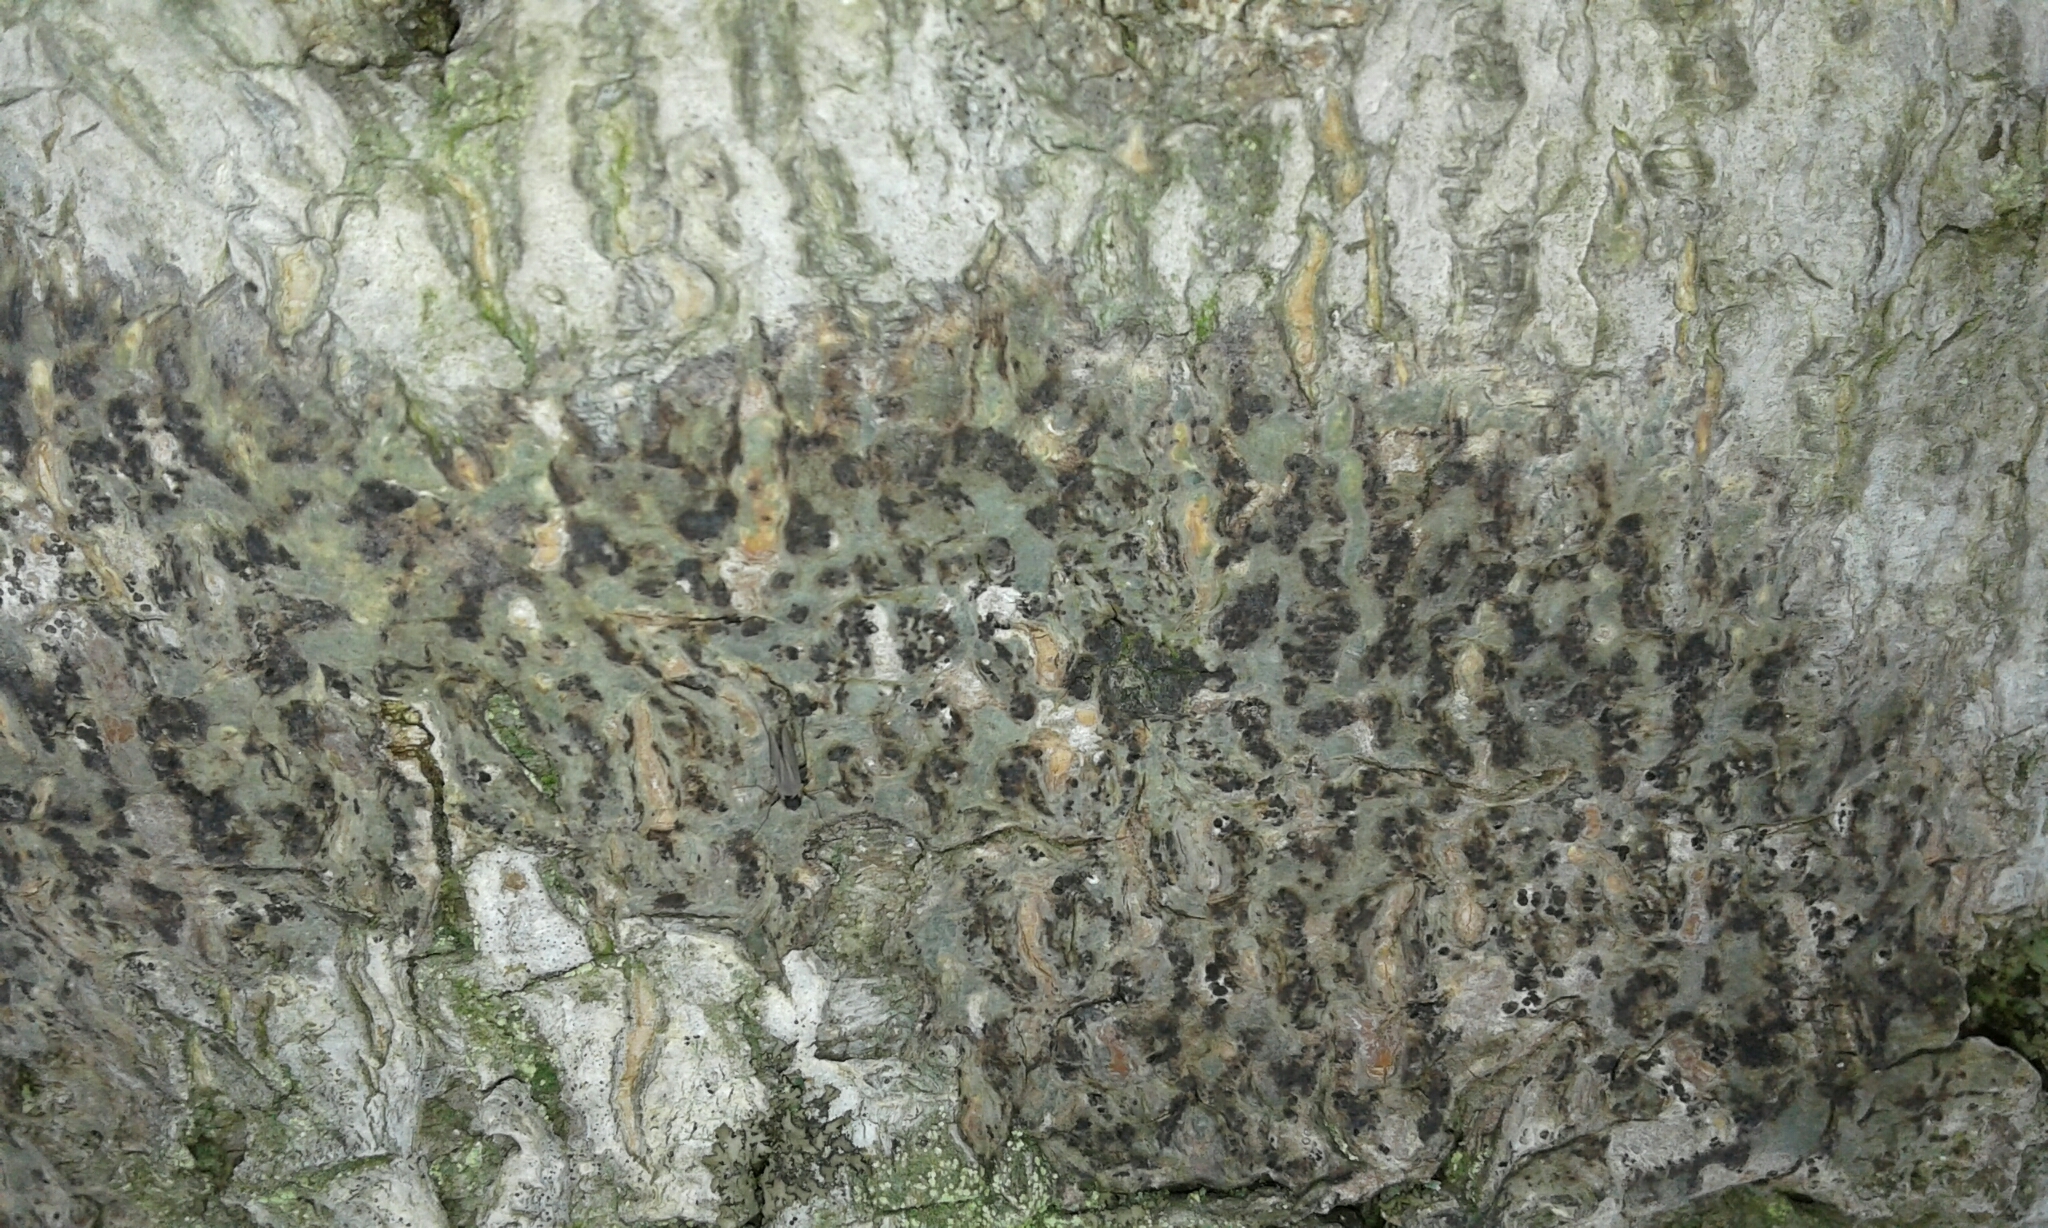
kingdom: Fungi
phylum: Ascomycota
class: Dothideomycetes
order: Trypetheliales
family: Trypetheliaceae
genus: Viridothelium
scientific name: Viridothelium virens
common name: Speckled blister lichen
